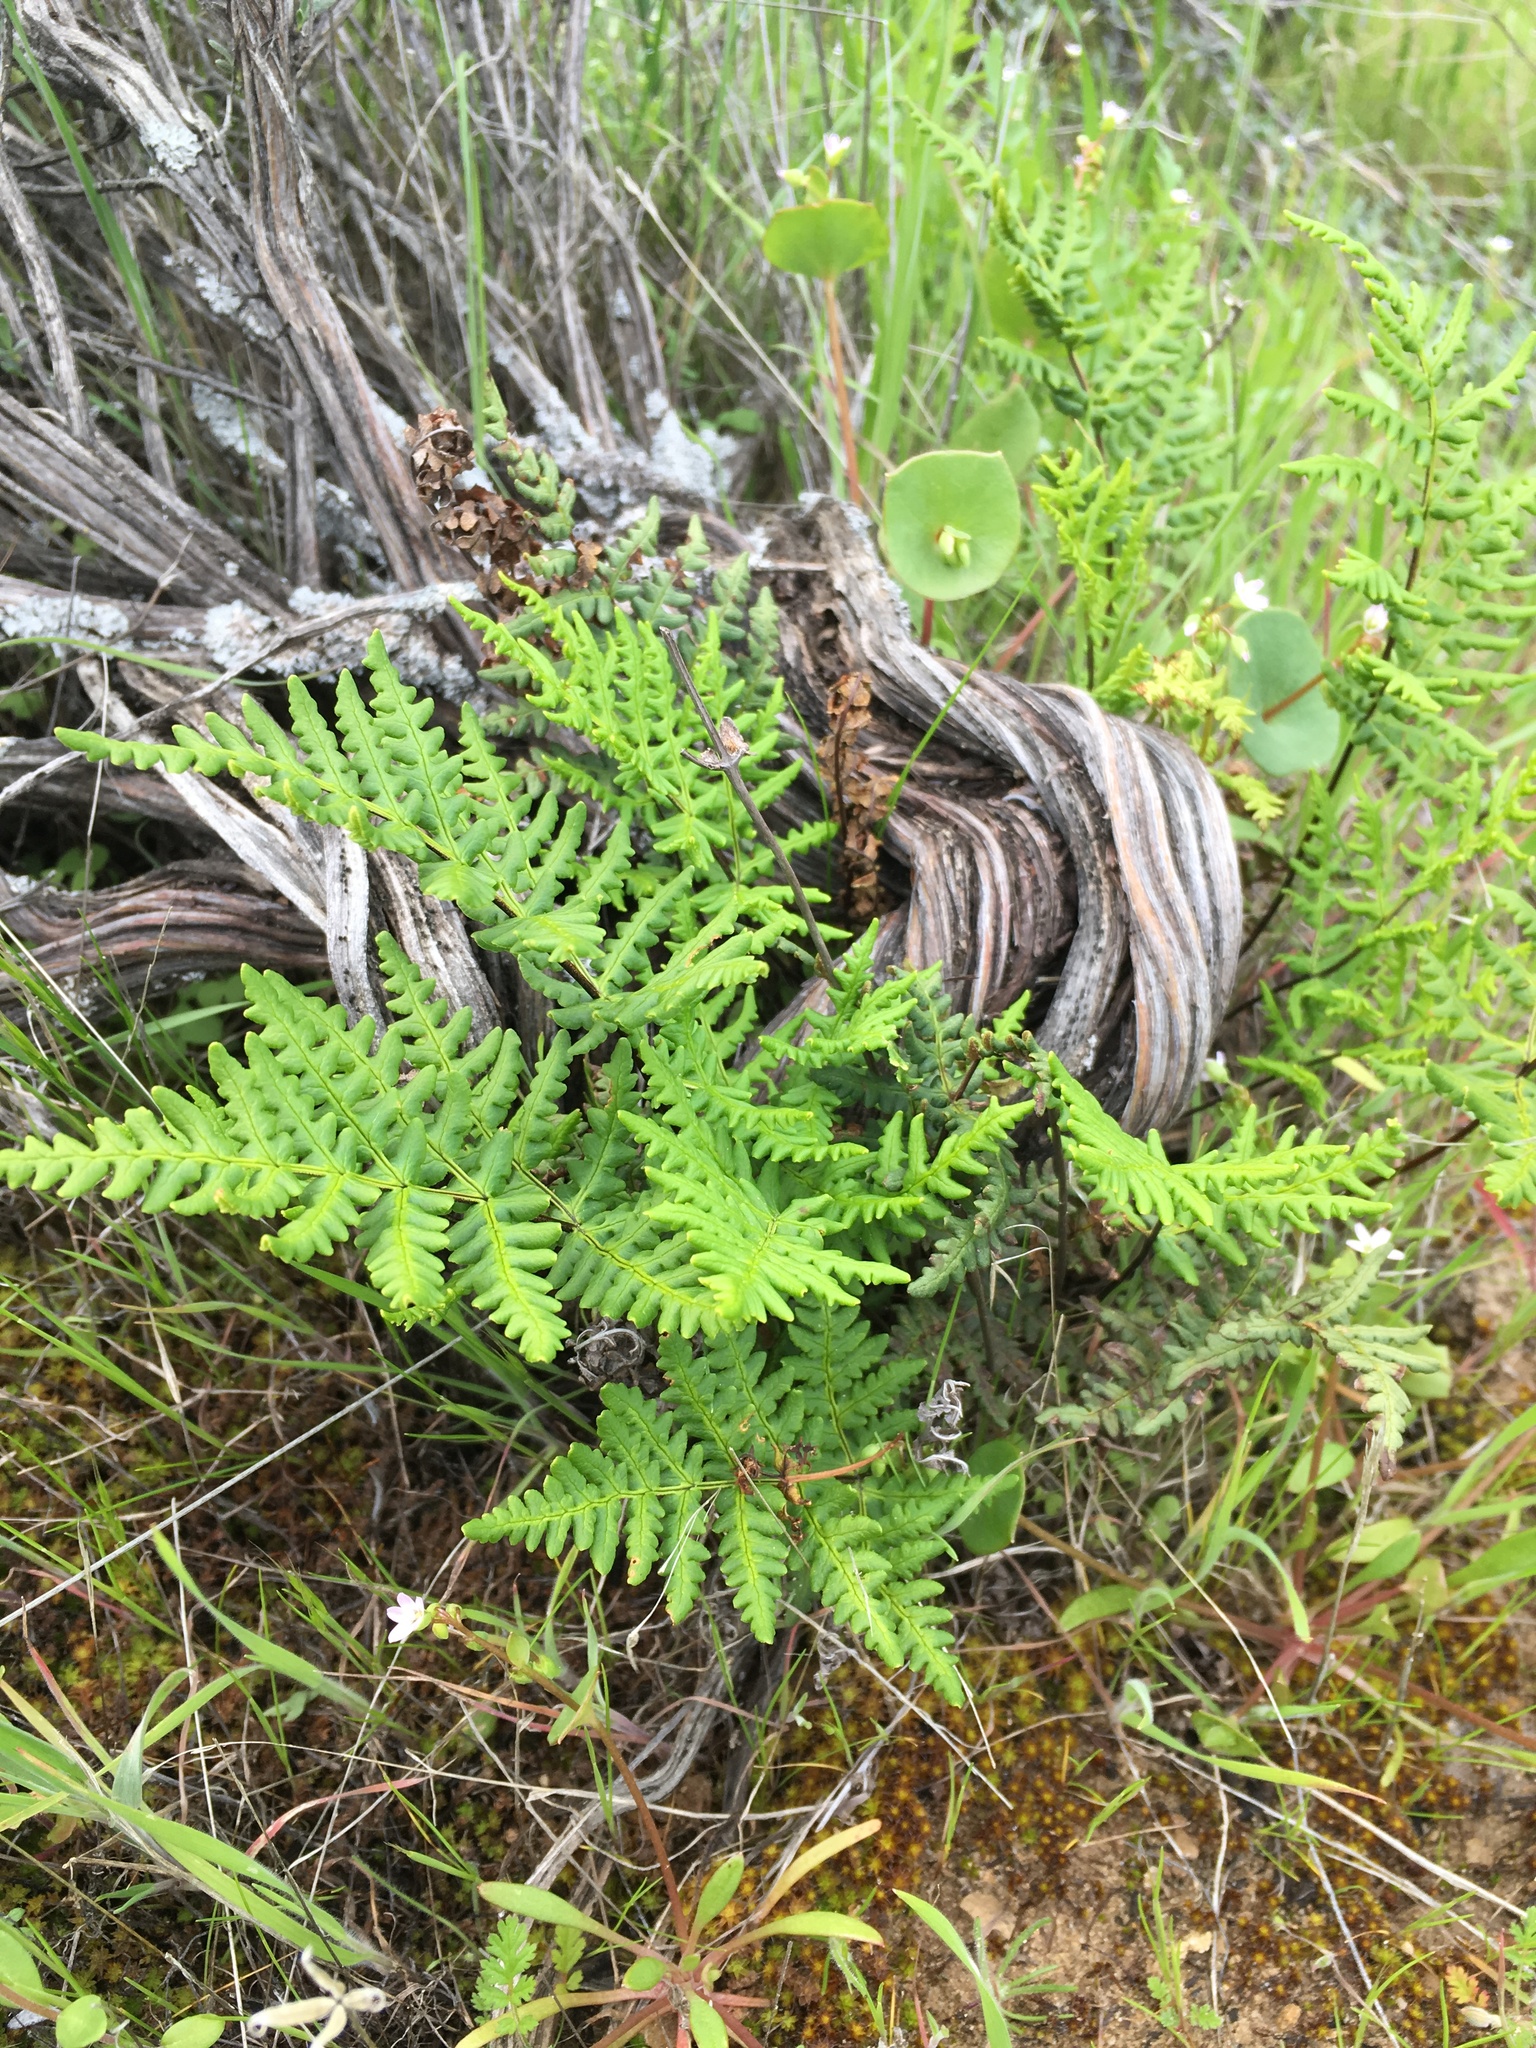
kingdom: Plantae
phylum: Tracheophyta
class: Polypodiopsida
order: Polypodiales
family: Pteridaceae
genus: Pentagramma
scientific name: Pentagramma triangularis
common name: Gold fern
